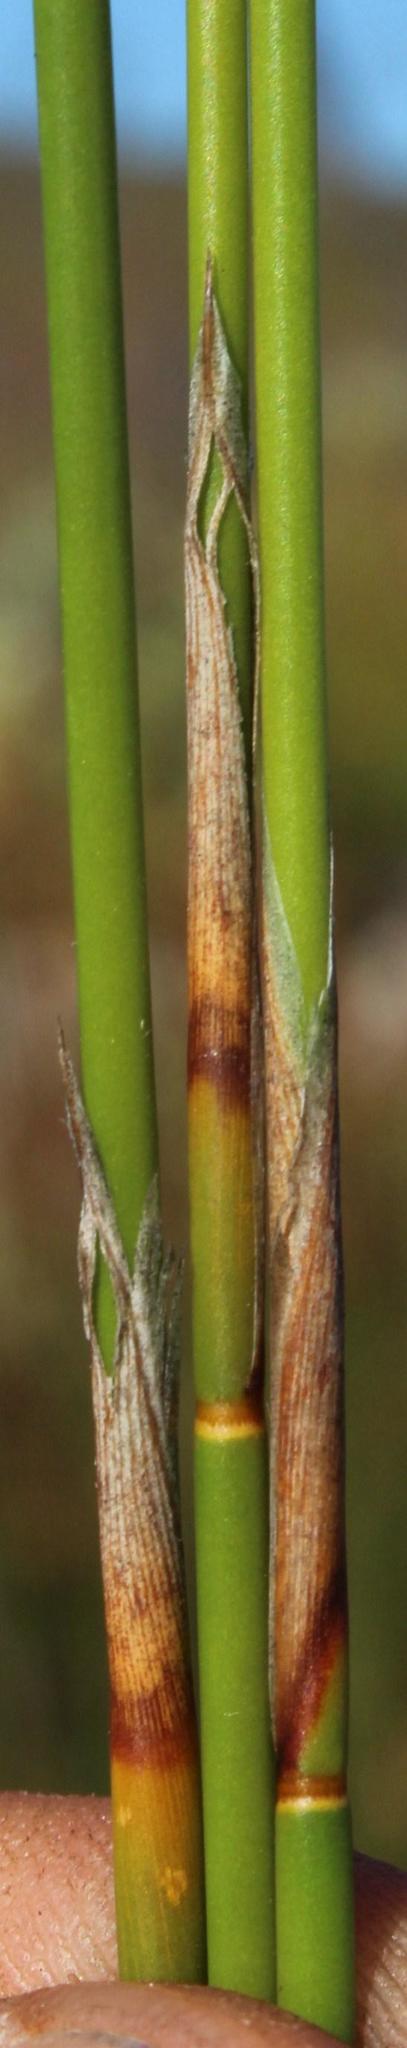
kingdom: Plantae
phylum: Tracheophyta
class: Liliopsida
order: Poales
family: Restionaceae
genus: Thamnochortus
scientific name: Thamnochortus lucens
